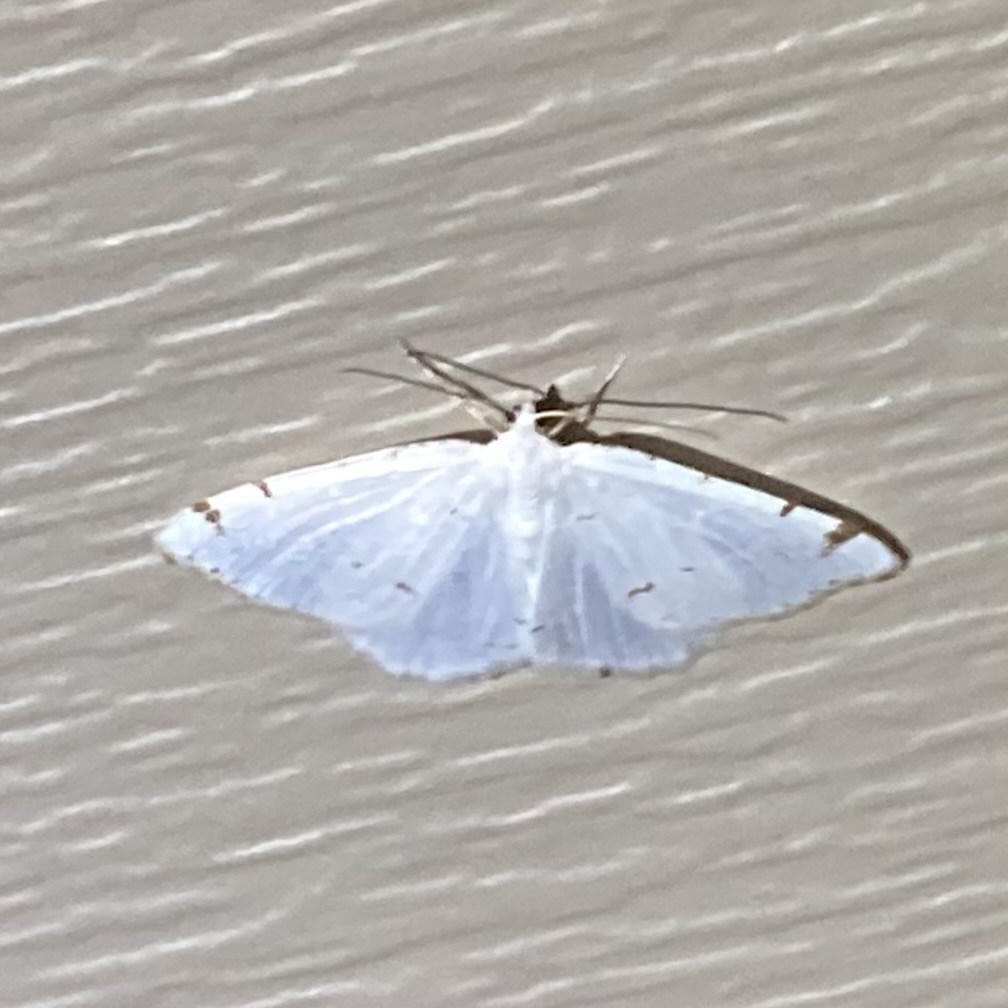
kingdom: Animalia
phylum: Arthropoda
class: Insecta
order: Lepidoptera
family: Geometridae
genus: Macaria
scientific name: Macaria pustularia
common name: Lesser maple spanworm moth
